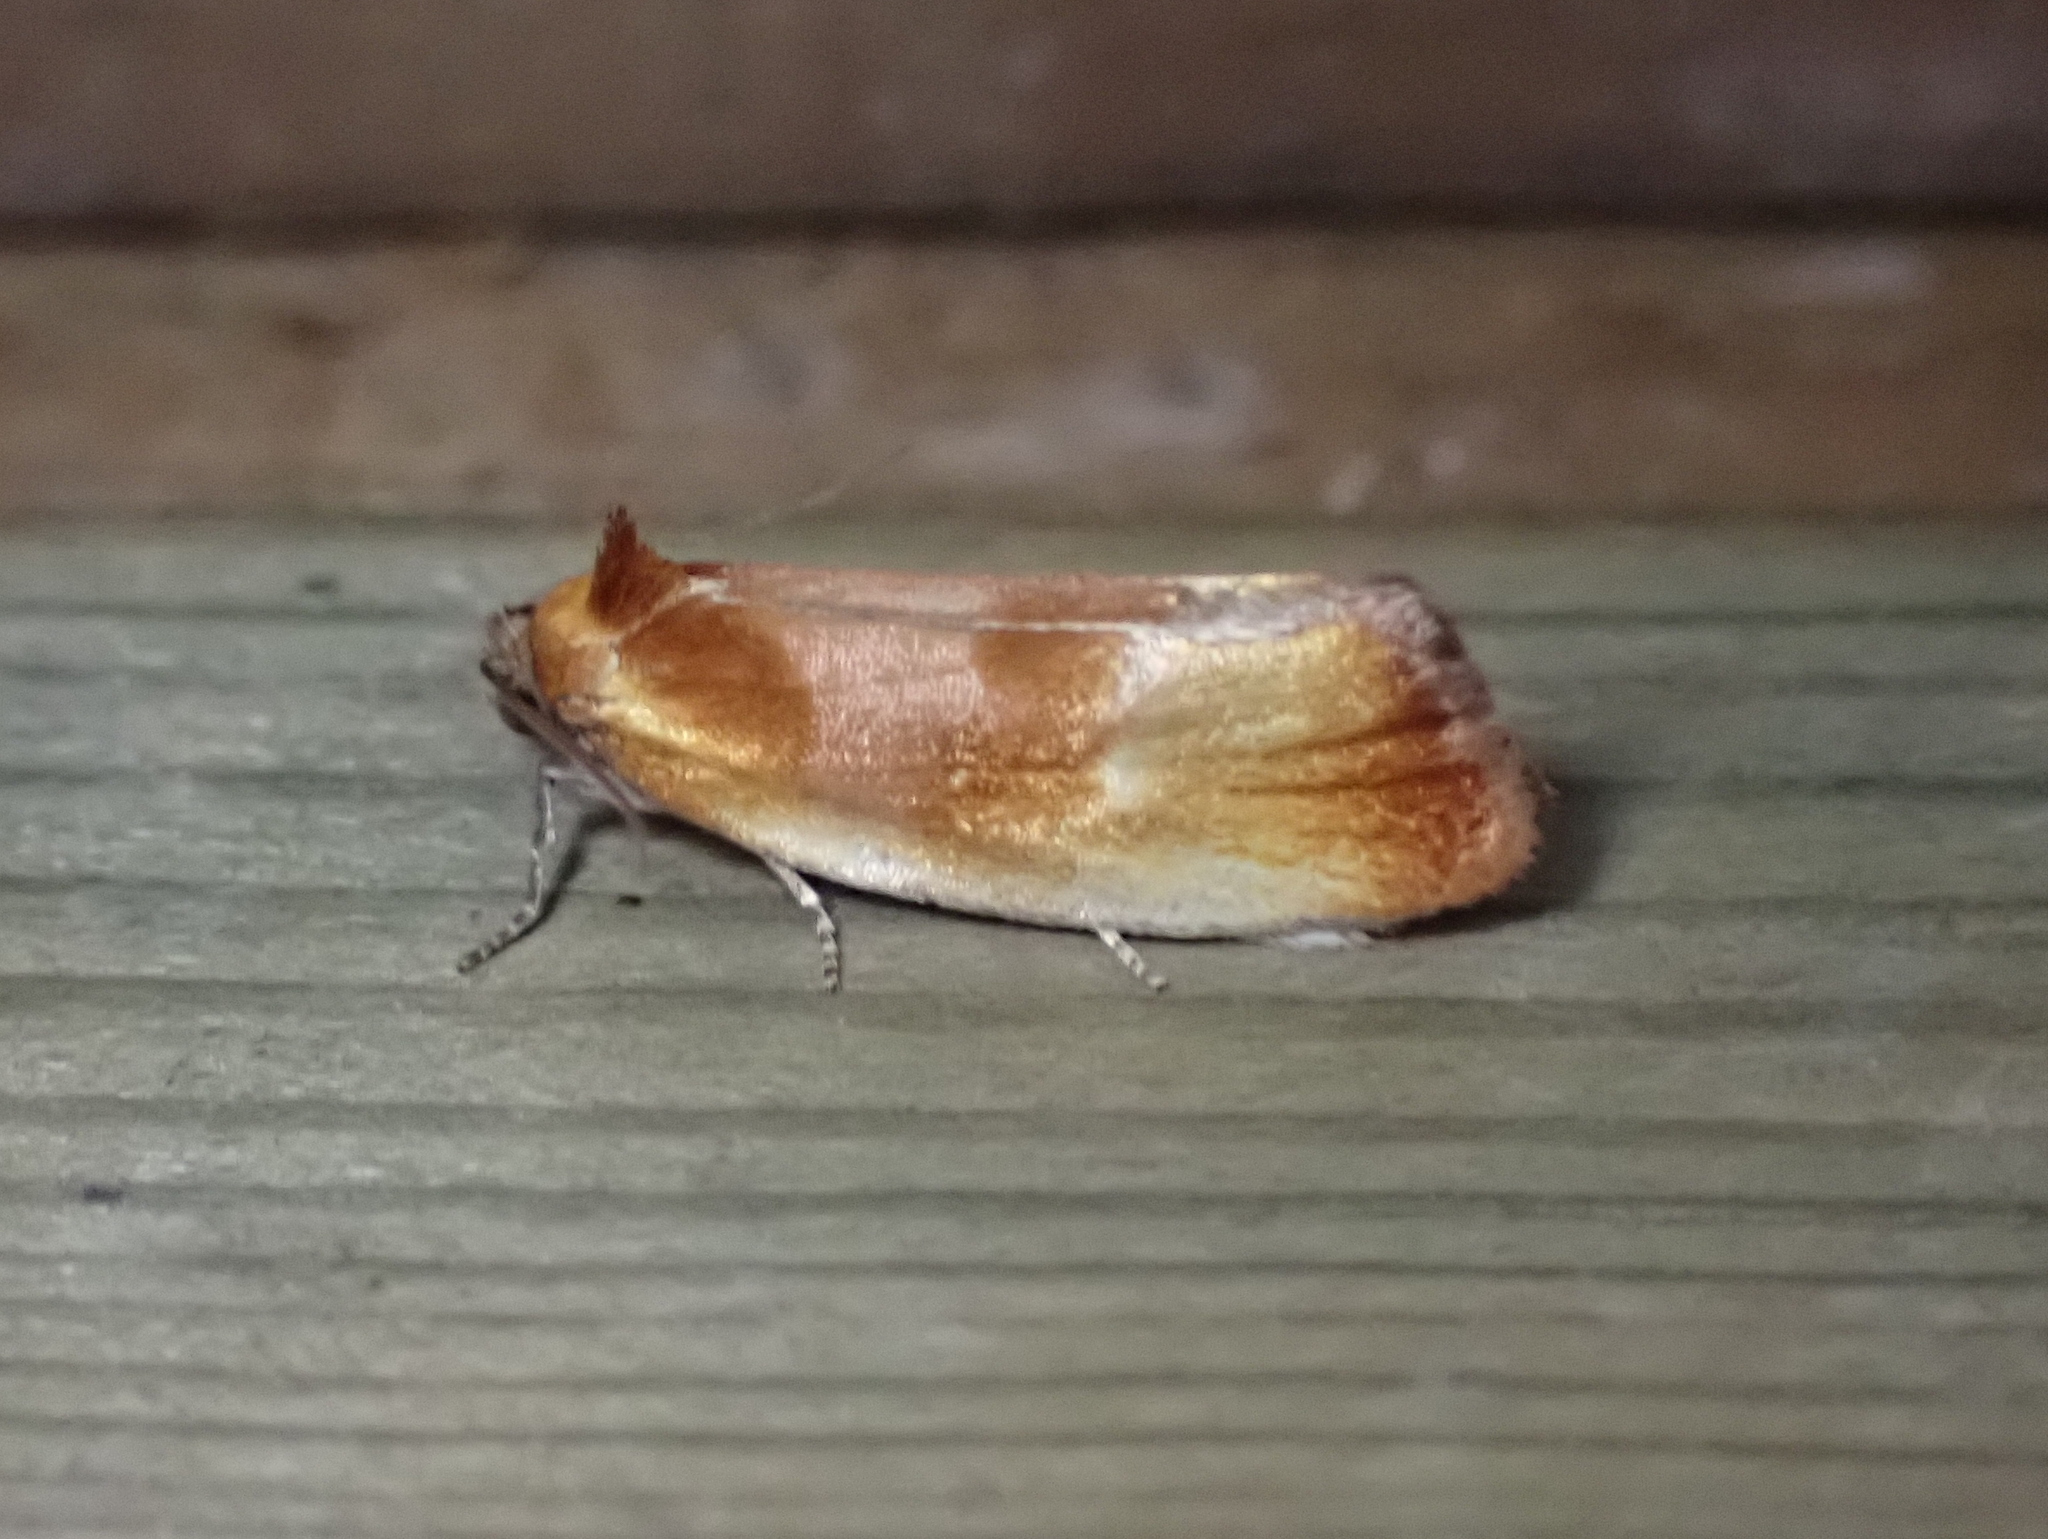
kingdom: Animalia
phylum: Arthropoda
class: Insecta
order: Lepidoptera
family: Tortricidae
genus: Eulia
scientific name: Eulia ministrana
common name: Brassy twist
